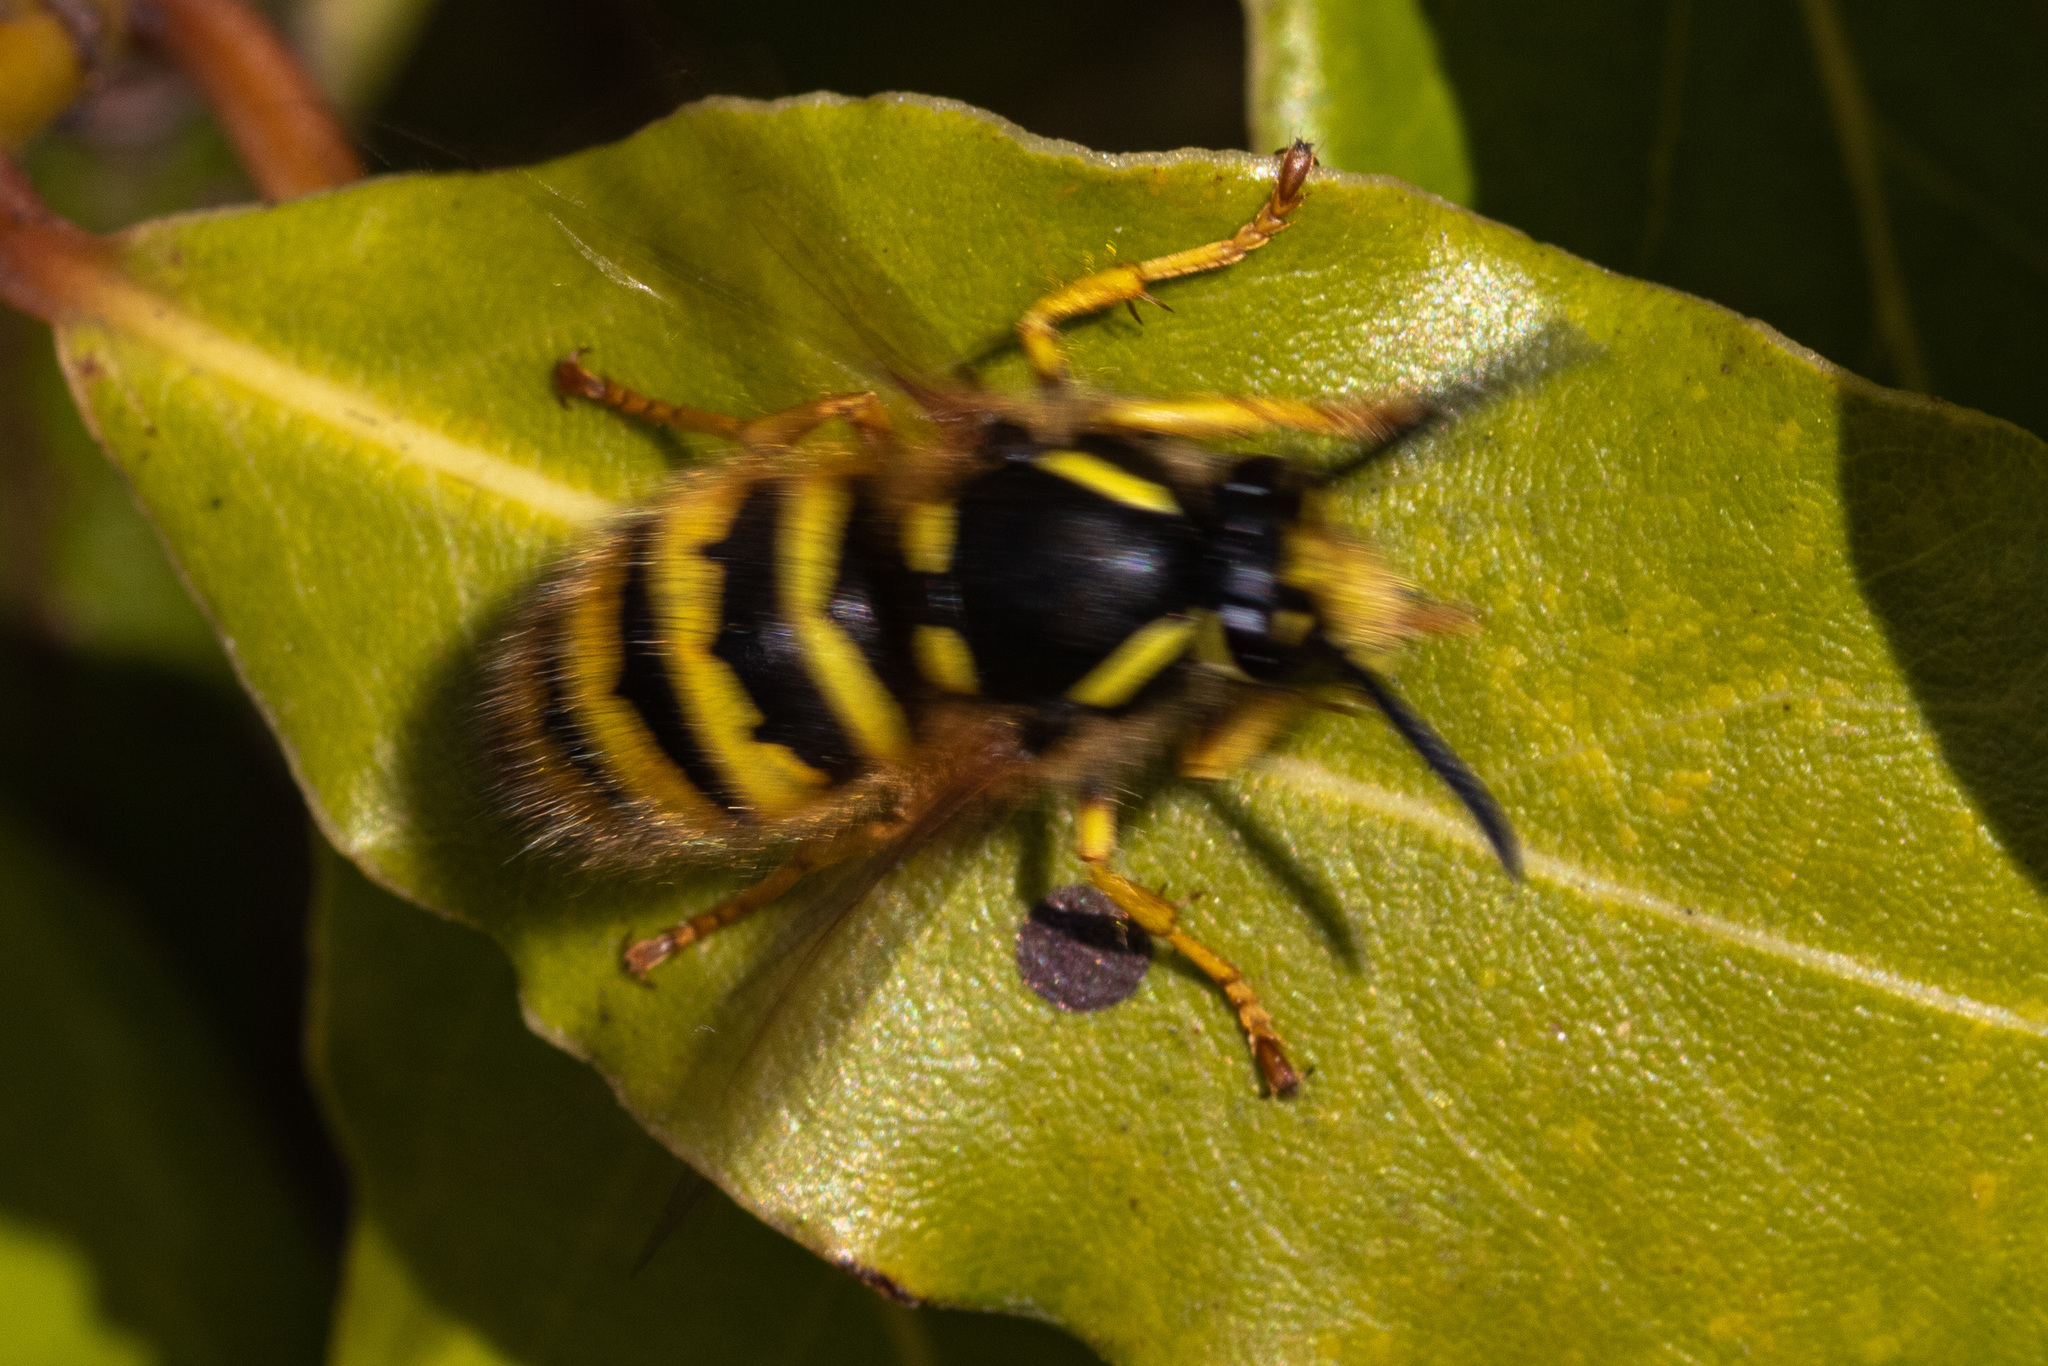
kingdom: Animalia
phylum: Arthropoda
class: Insecta
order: Hymenoptera
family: Vespidae
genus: Dolichovespula
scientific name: Dolichovespula sylvestris
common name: Tree wasp
